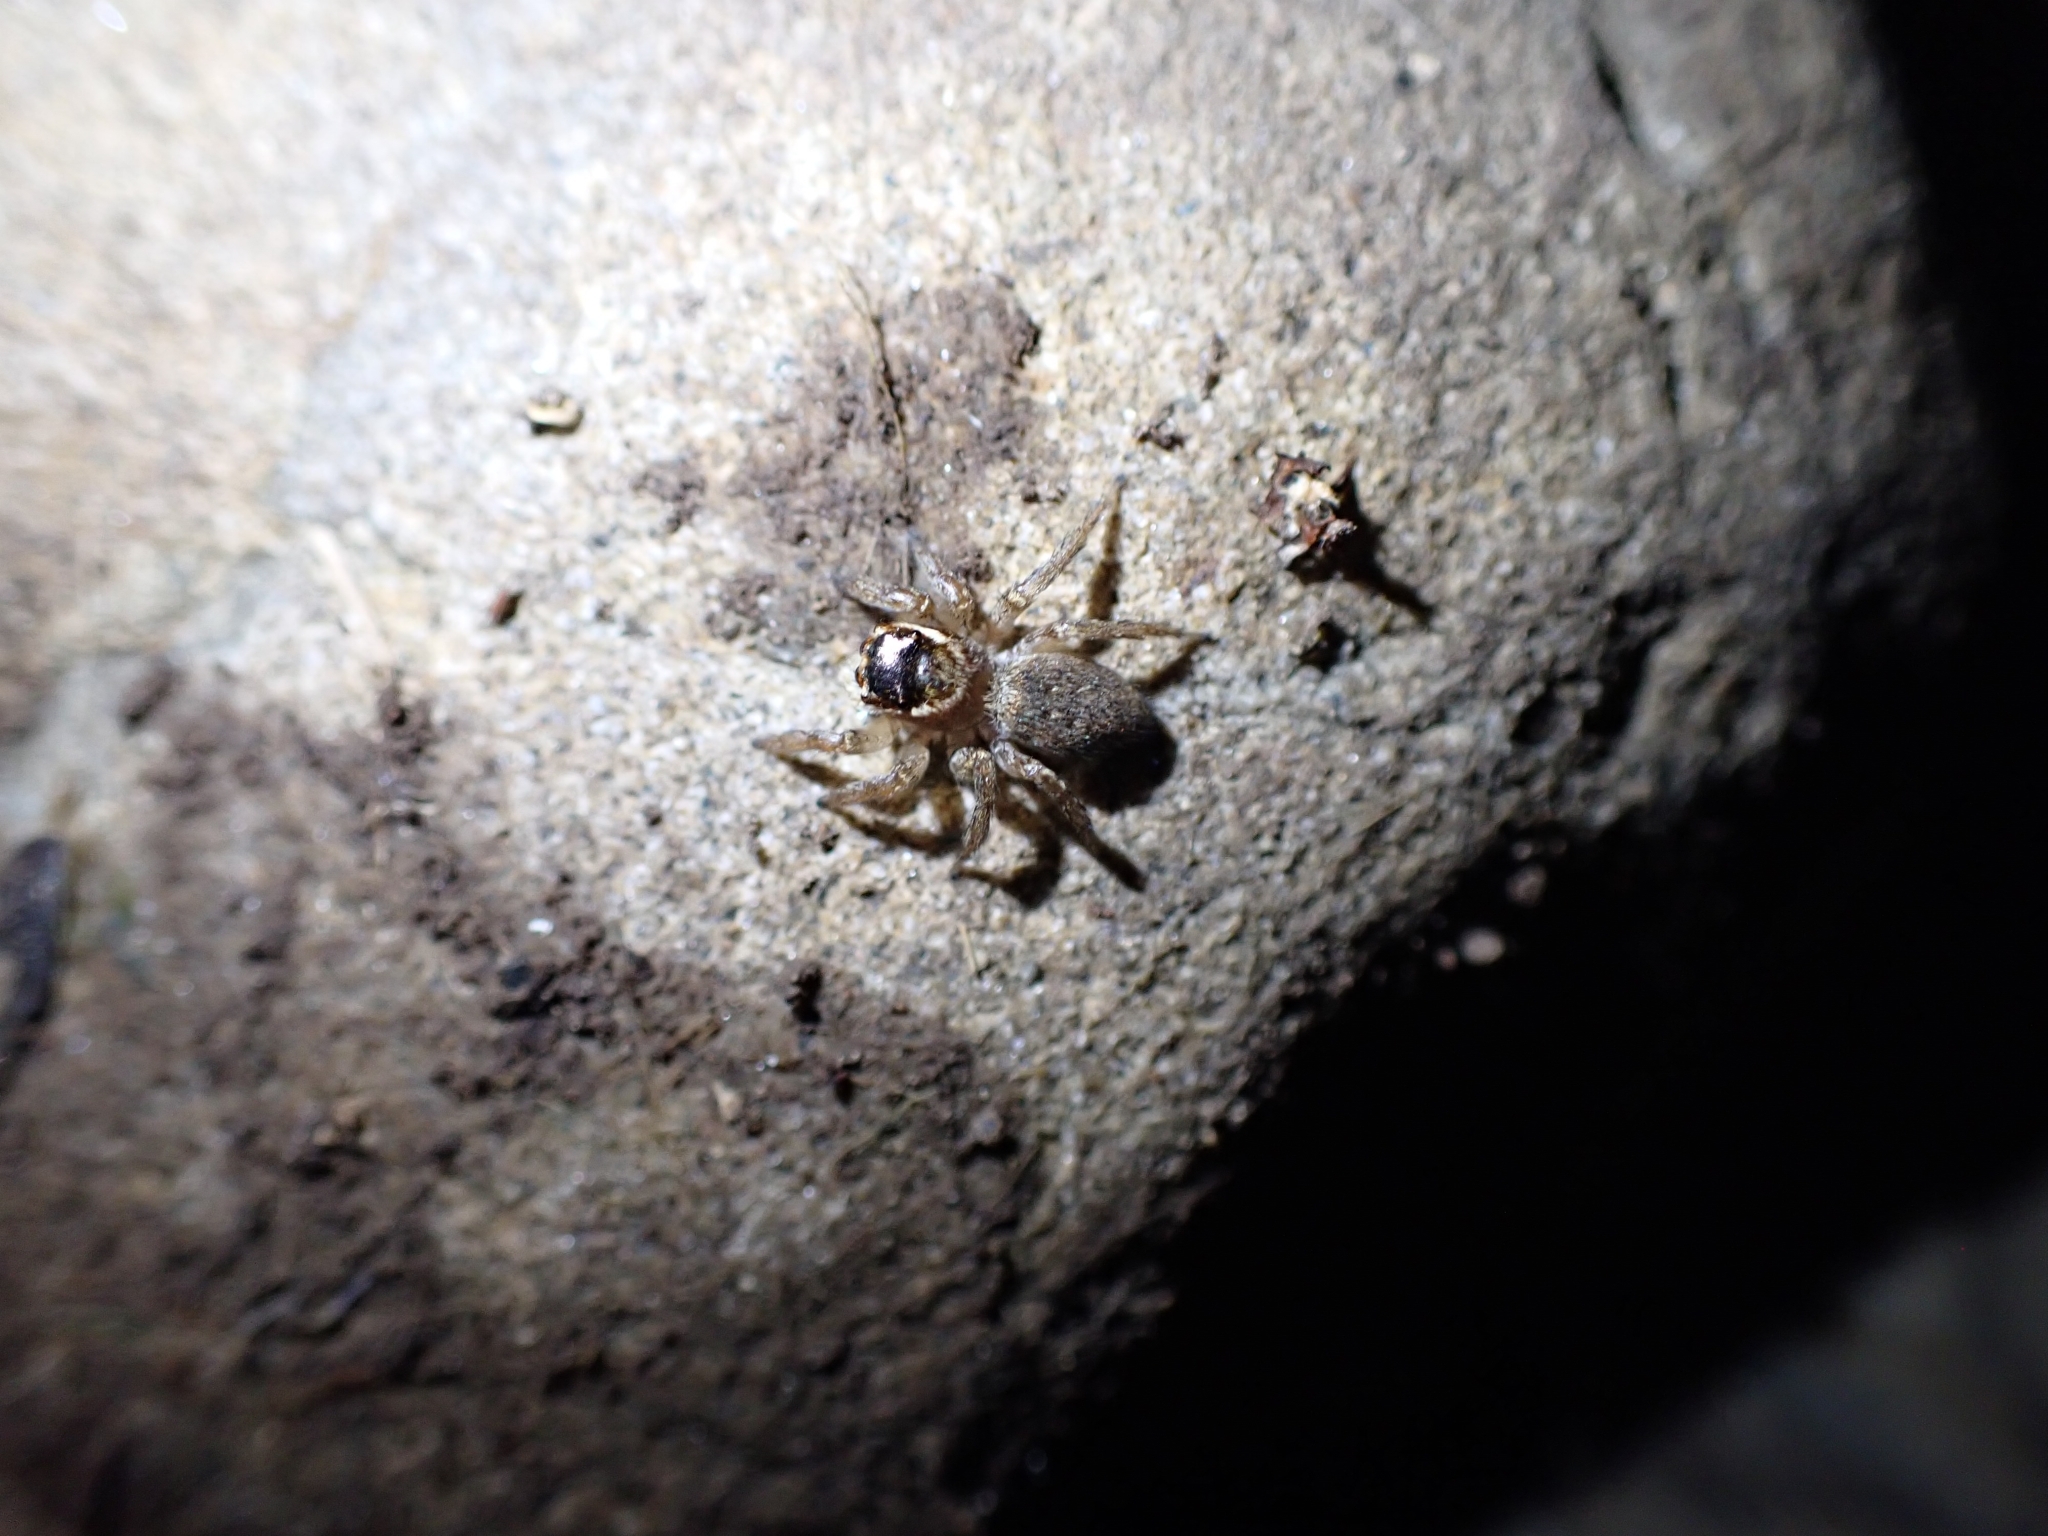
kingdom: Animalia
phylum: Arthropoda
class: Arachnida
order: Araneae
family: Salticidae
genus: Maratus
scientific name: Maratus griseus
